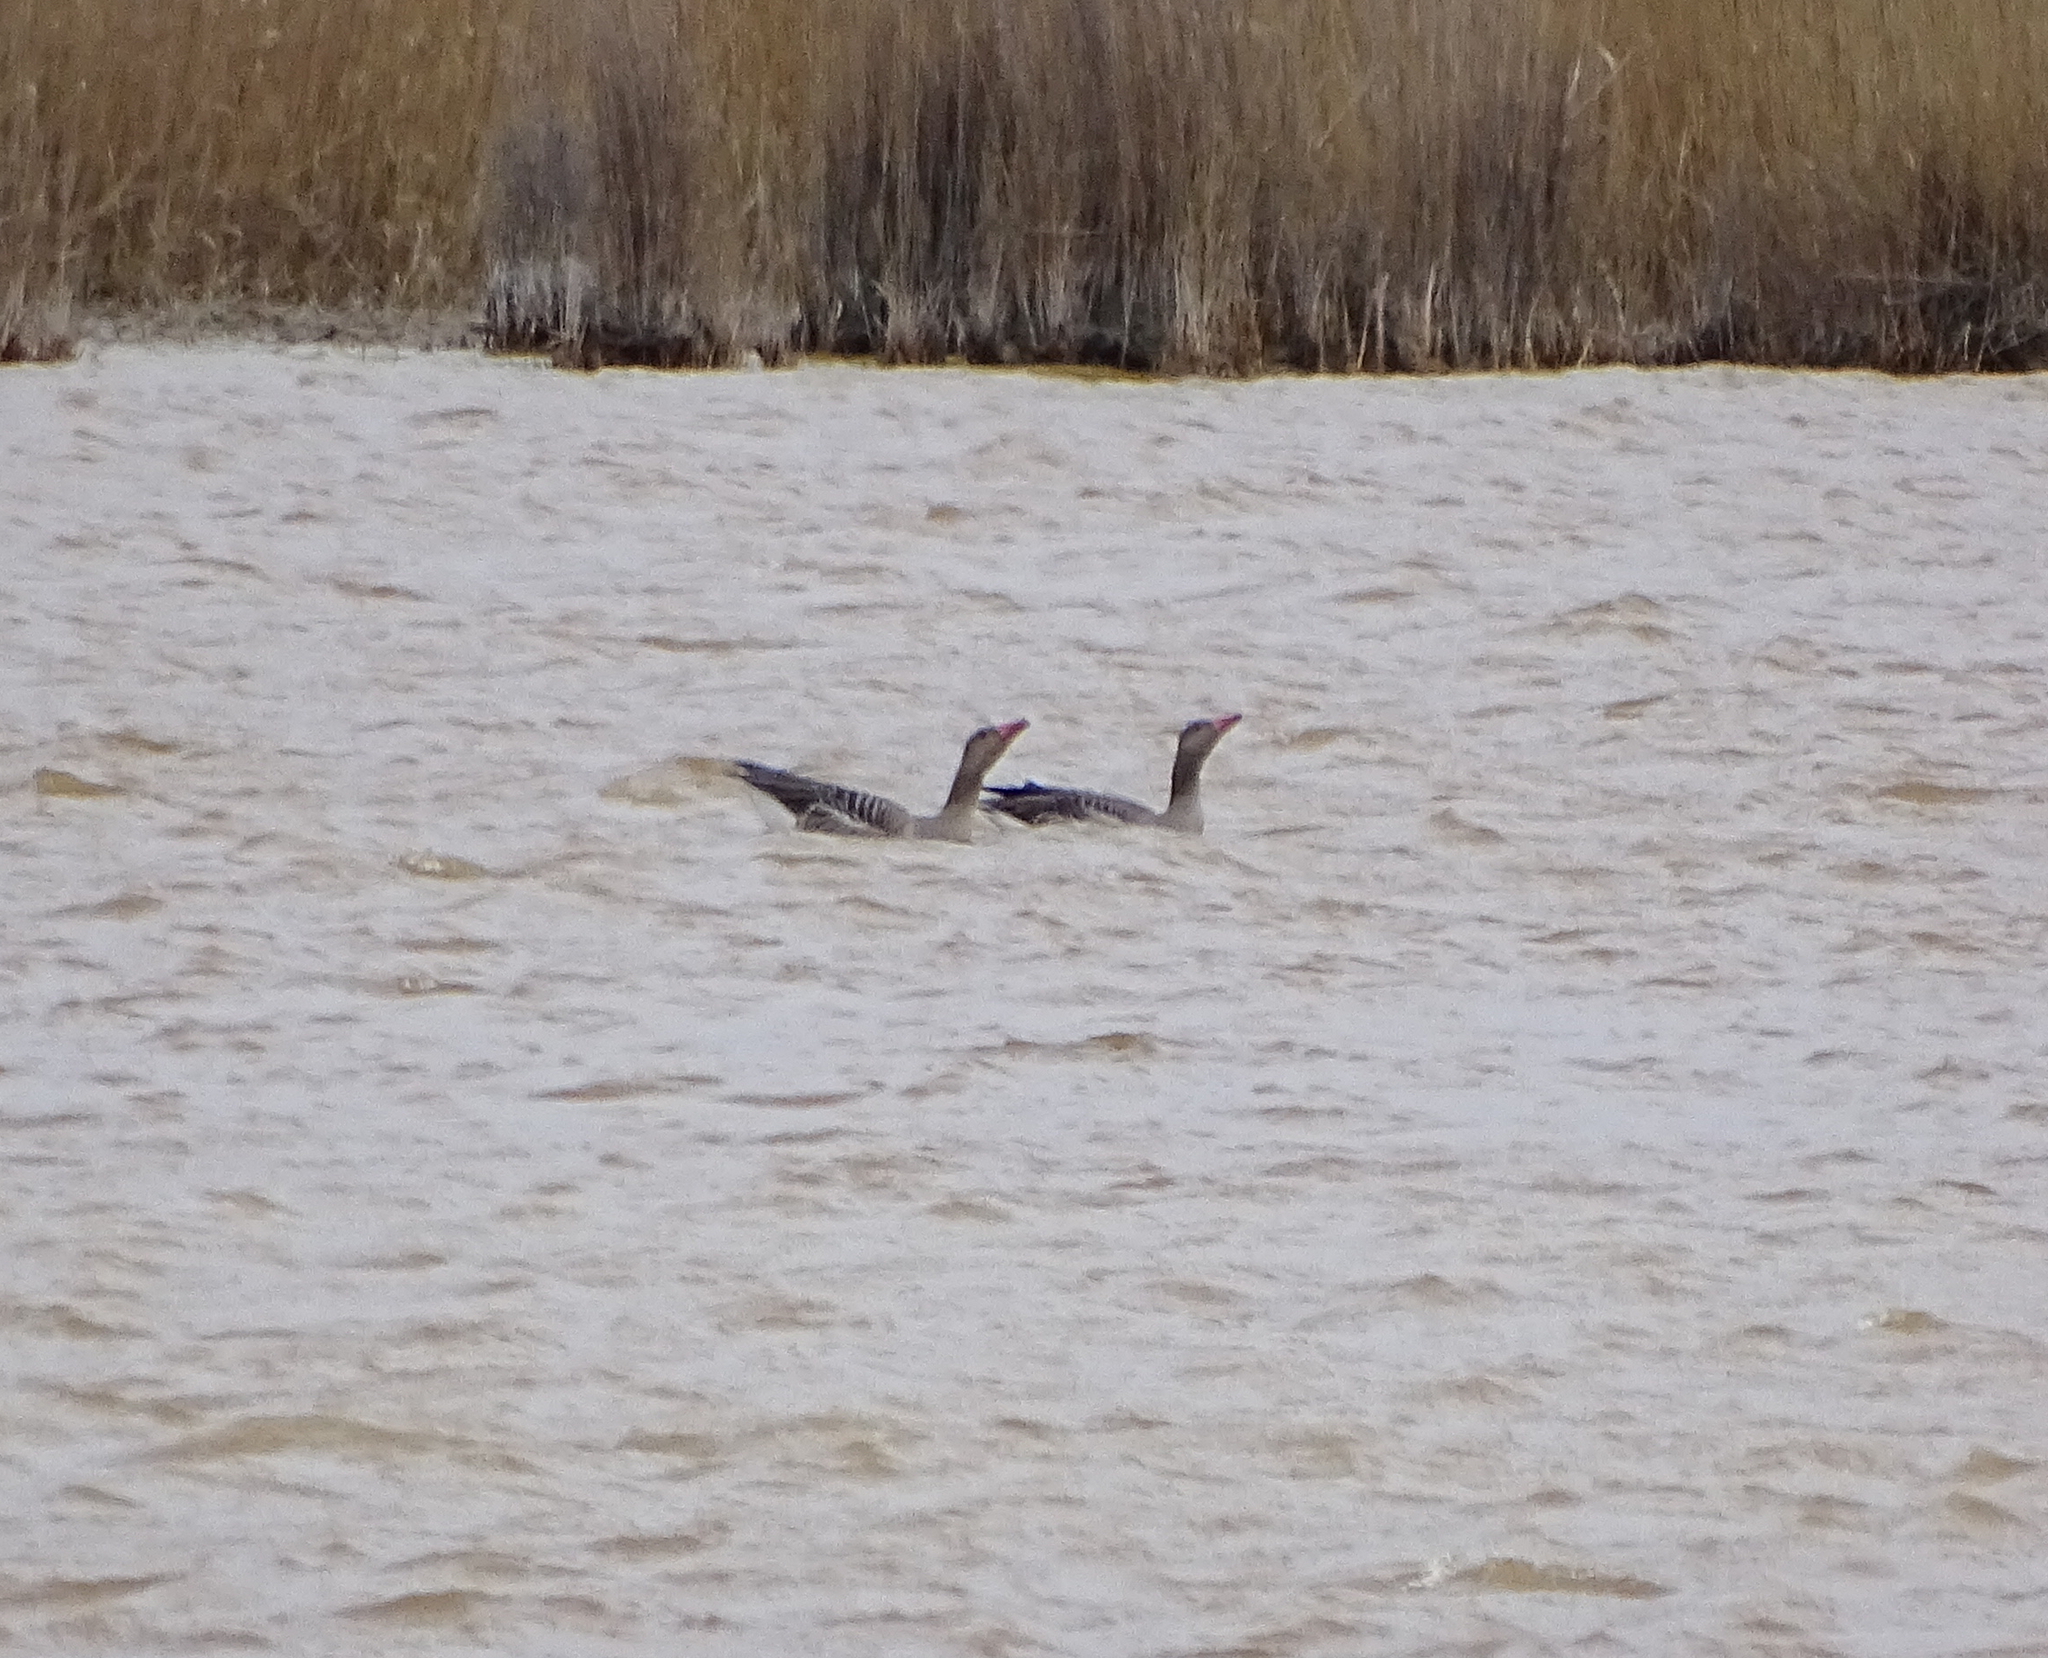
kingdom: Animalia
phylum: Chordata
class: Aves
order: Anseriformes
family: Anatidae
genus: Anser
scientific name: Anser anser
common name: Greylag goose
